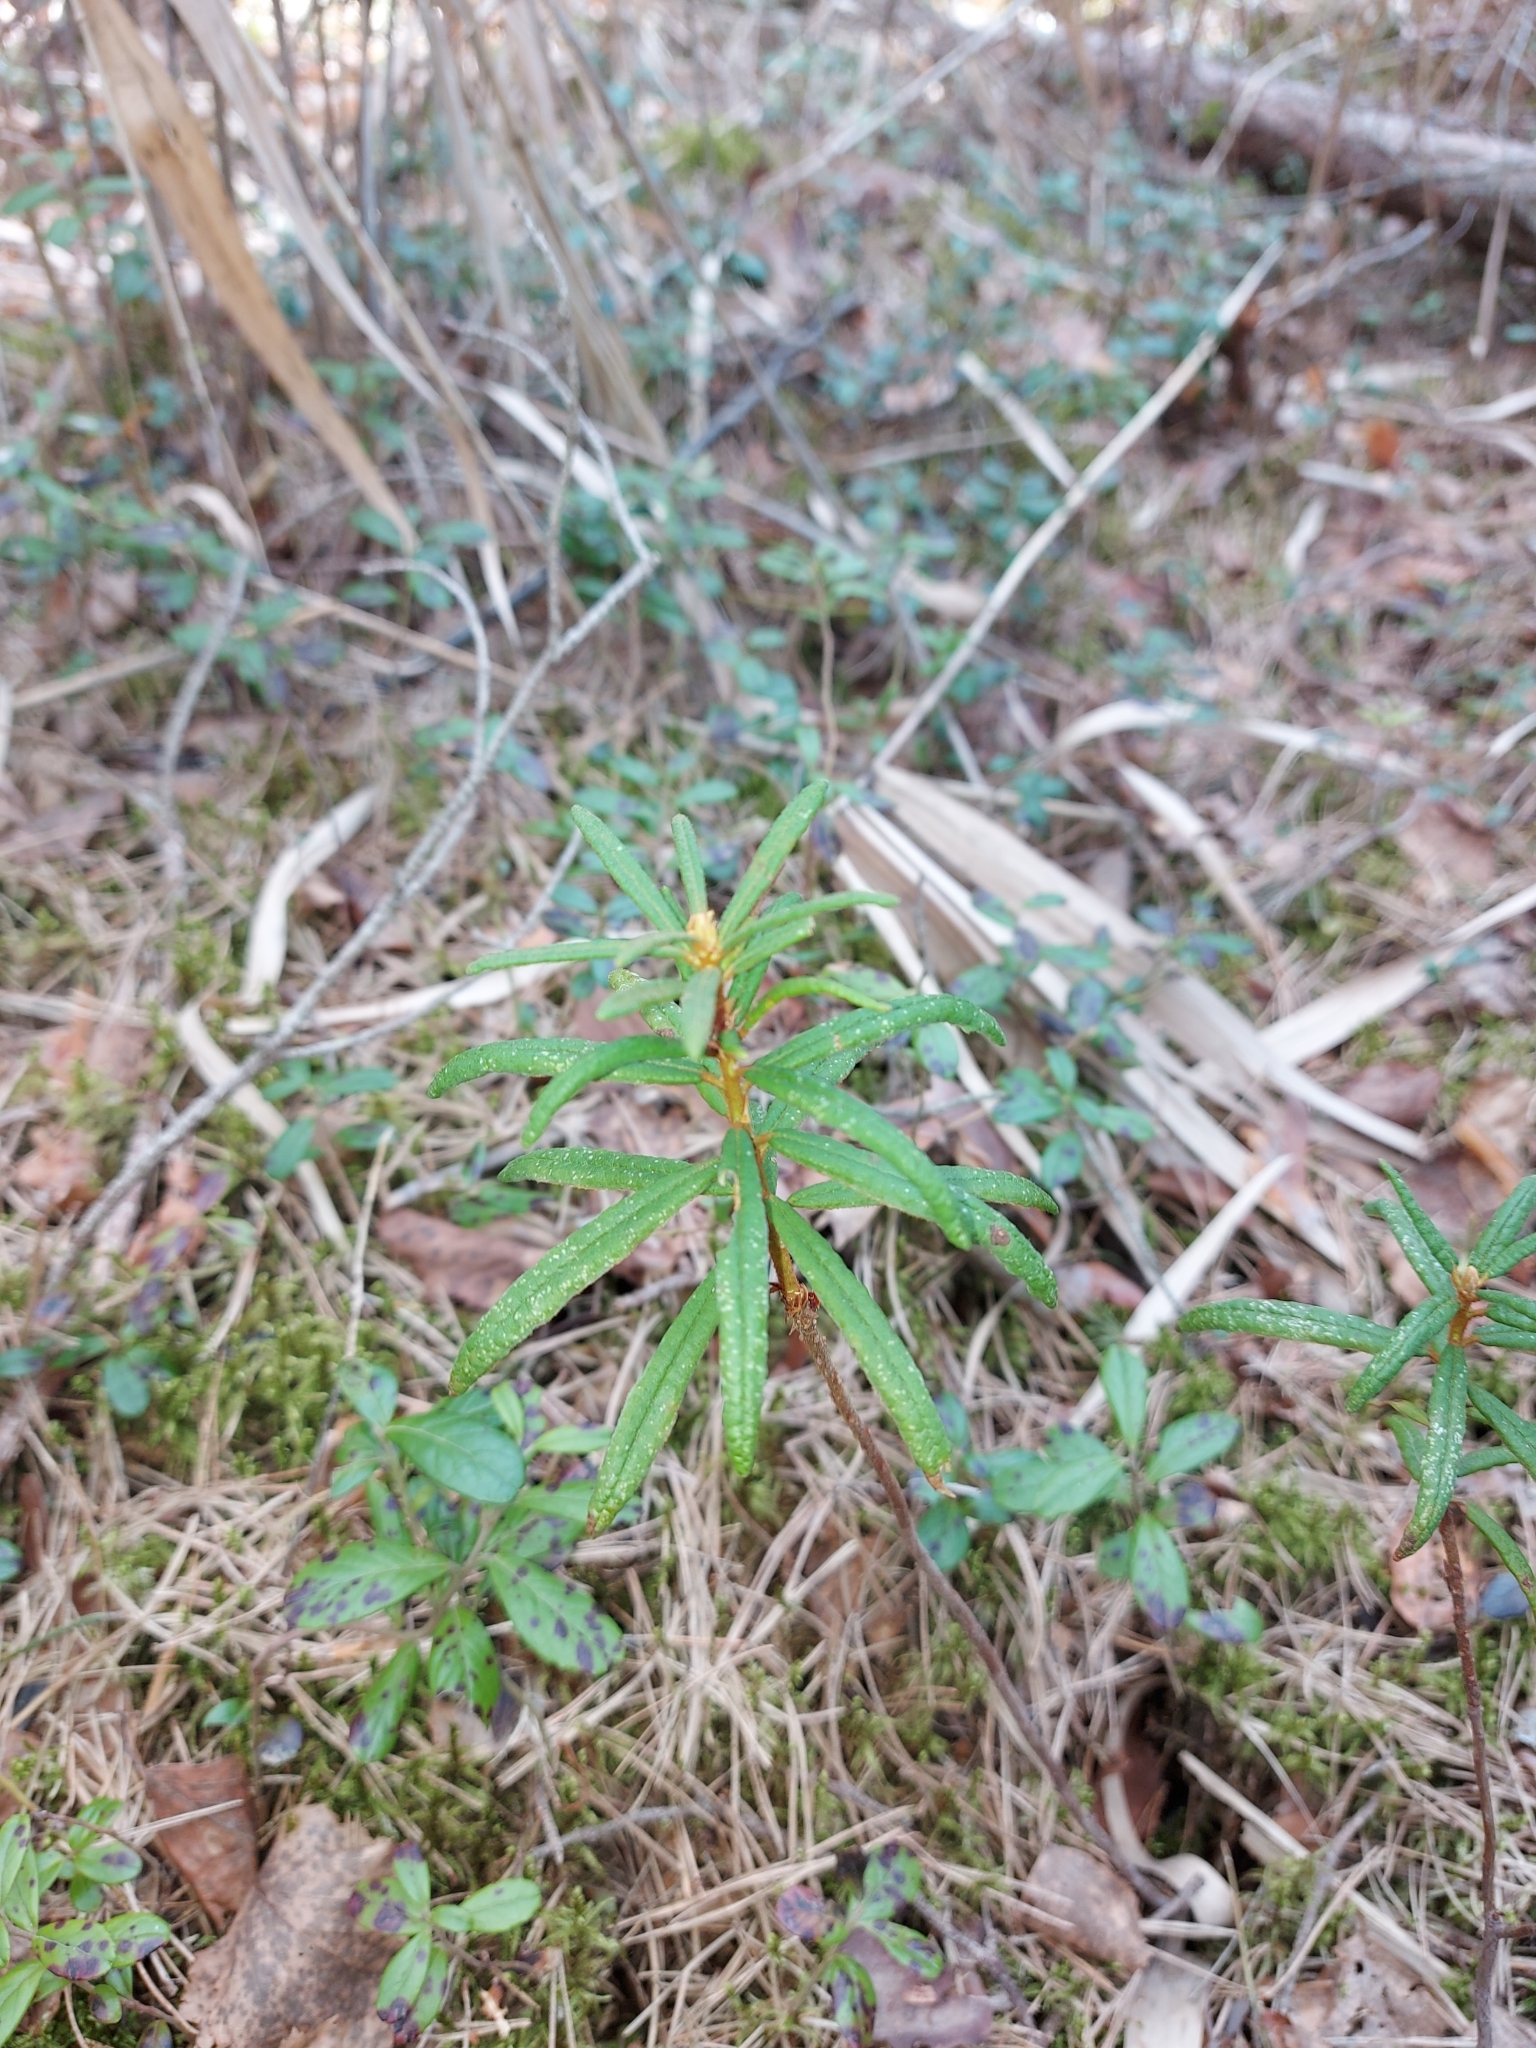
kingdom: Plantae
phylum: Tracheophyta
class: Magnoliopsida
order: Ericales
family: Ericaceae
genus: Rhododendron
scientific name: Rhododendron tomentosum
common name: Marsh labrador tea
